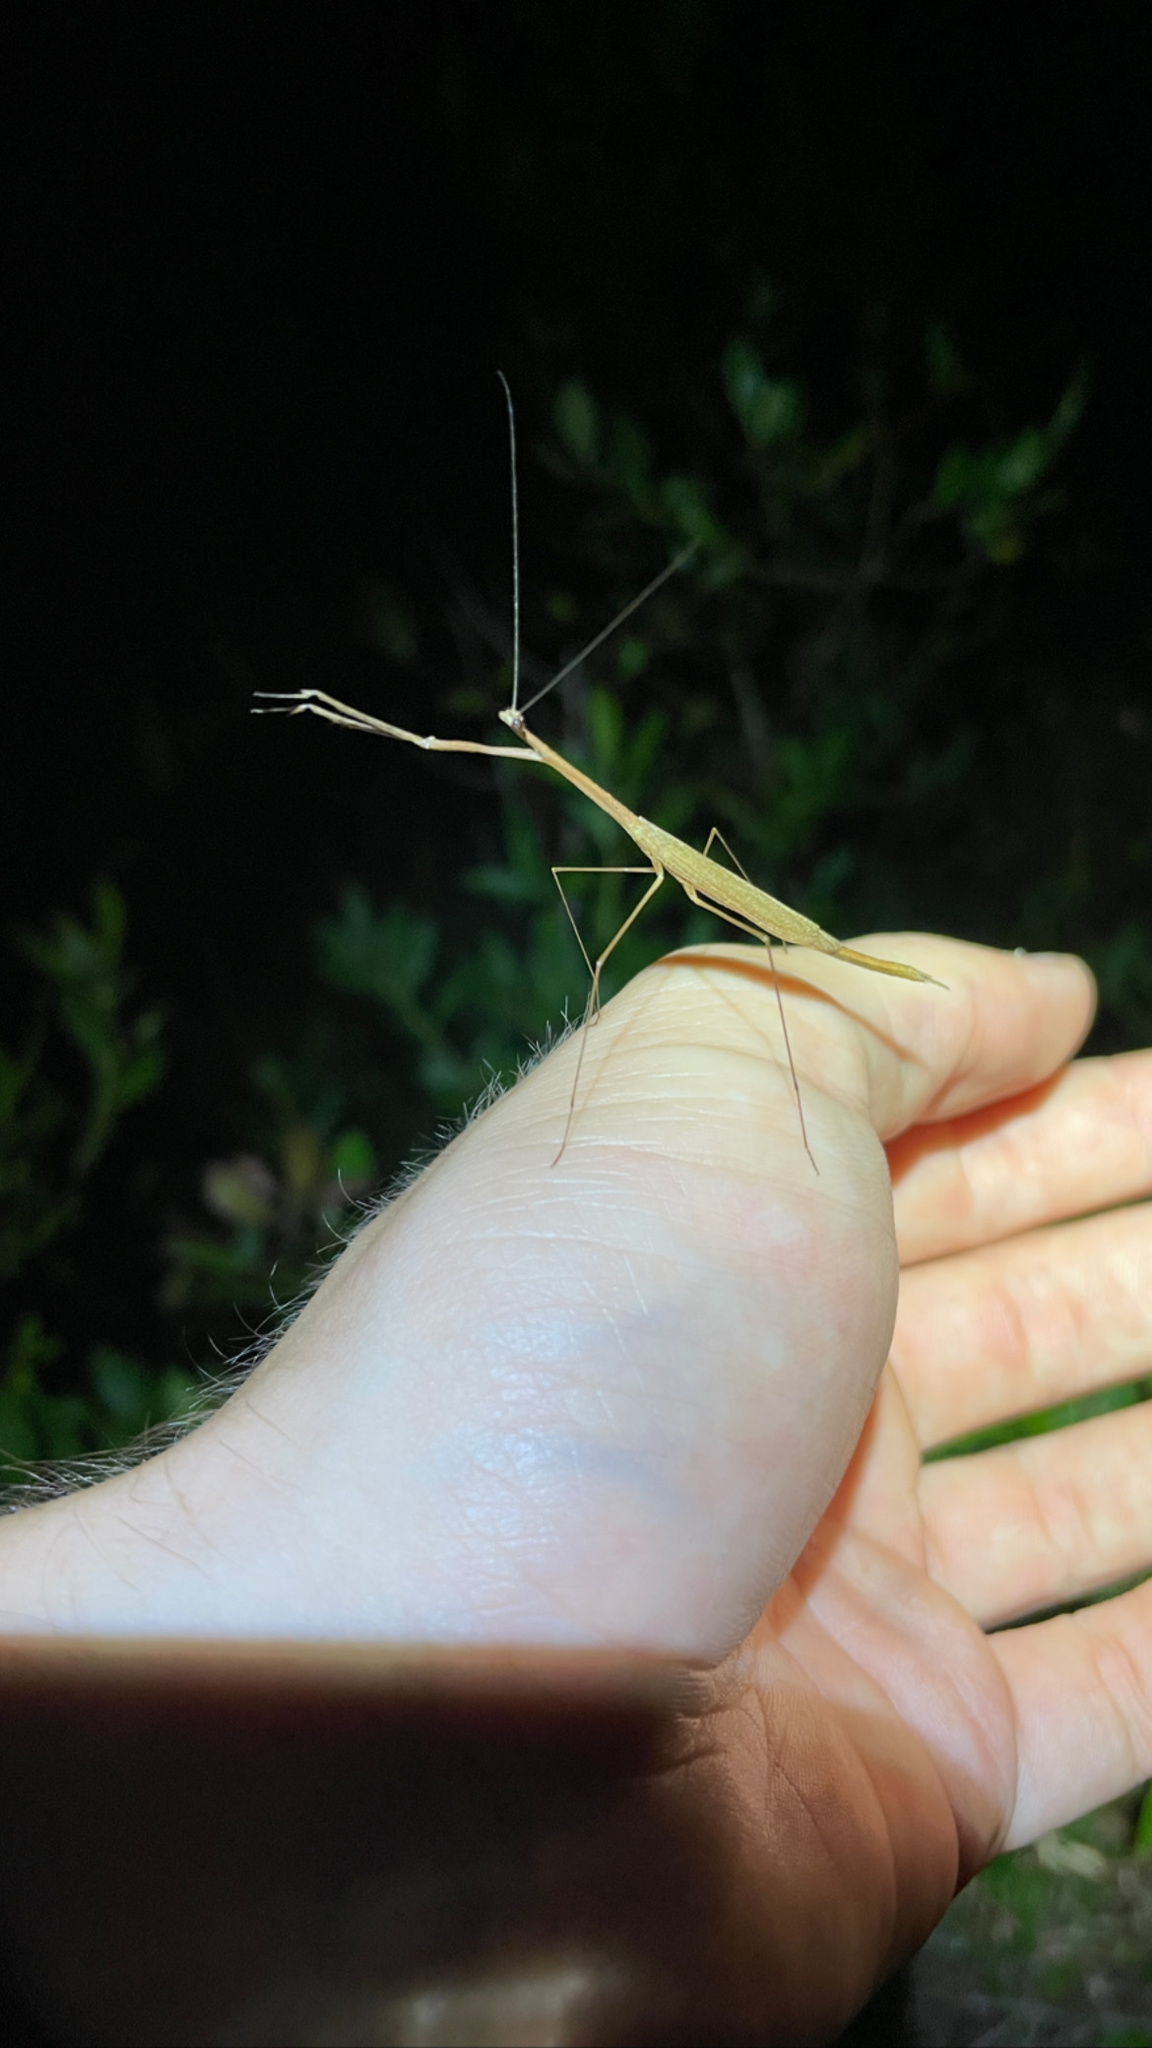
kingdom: Animalia
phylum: Arthropoda
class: Insecta
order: Mantodea
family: Thespidae
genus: Thesprotia
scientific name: Thesprotia graminis
